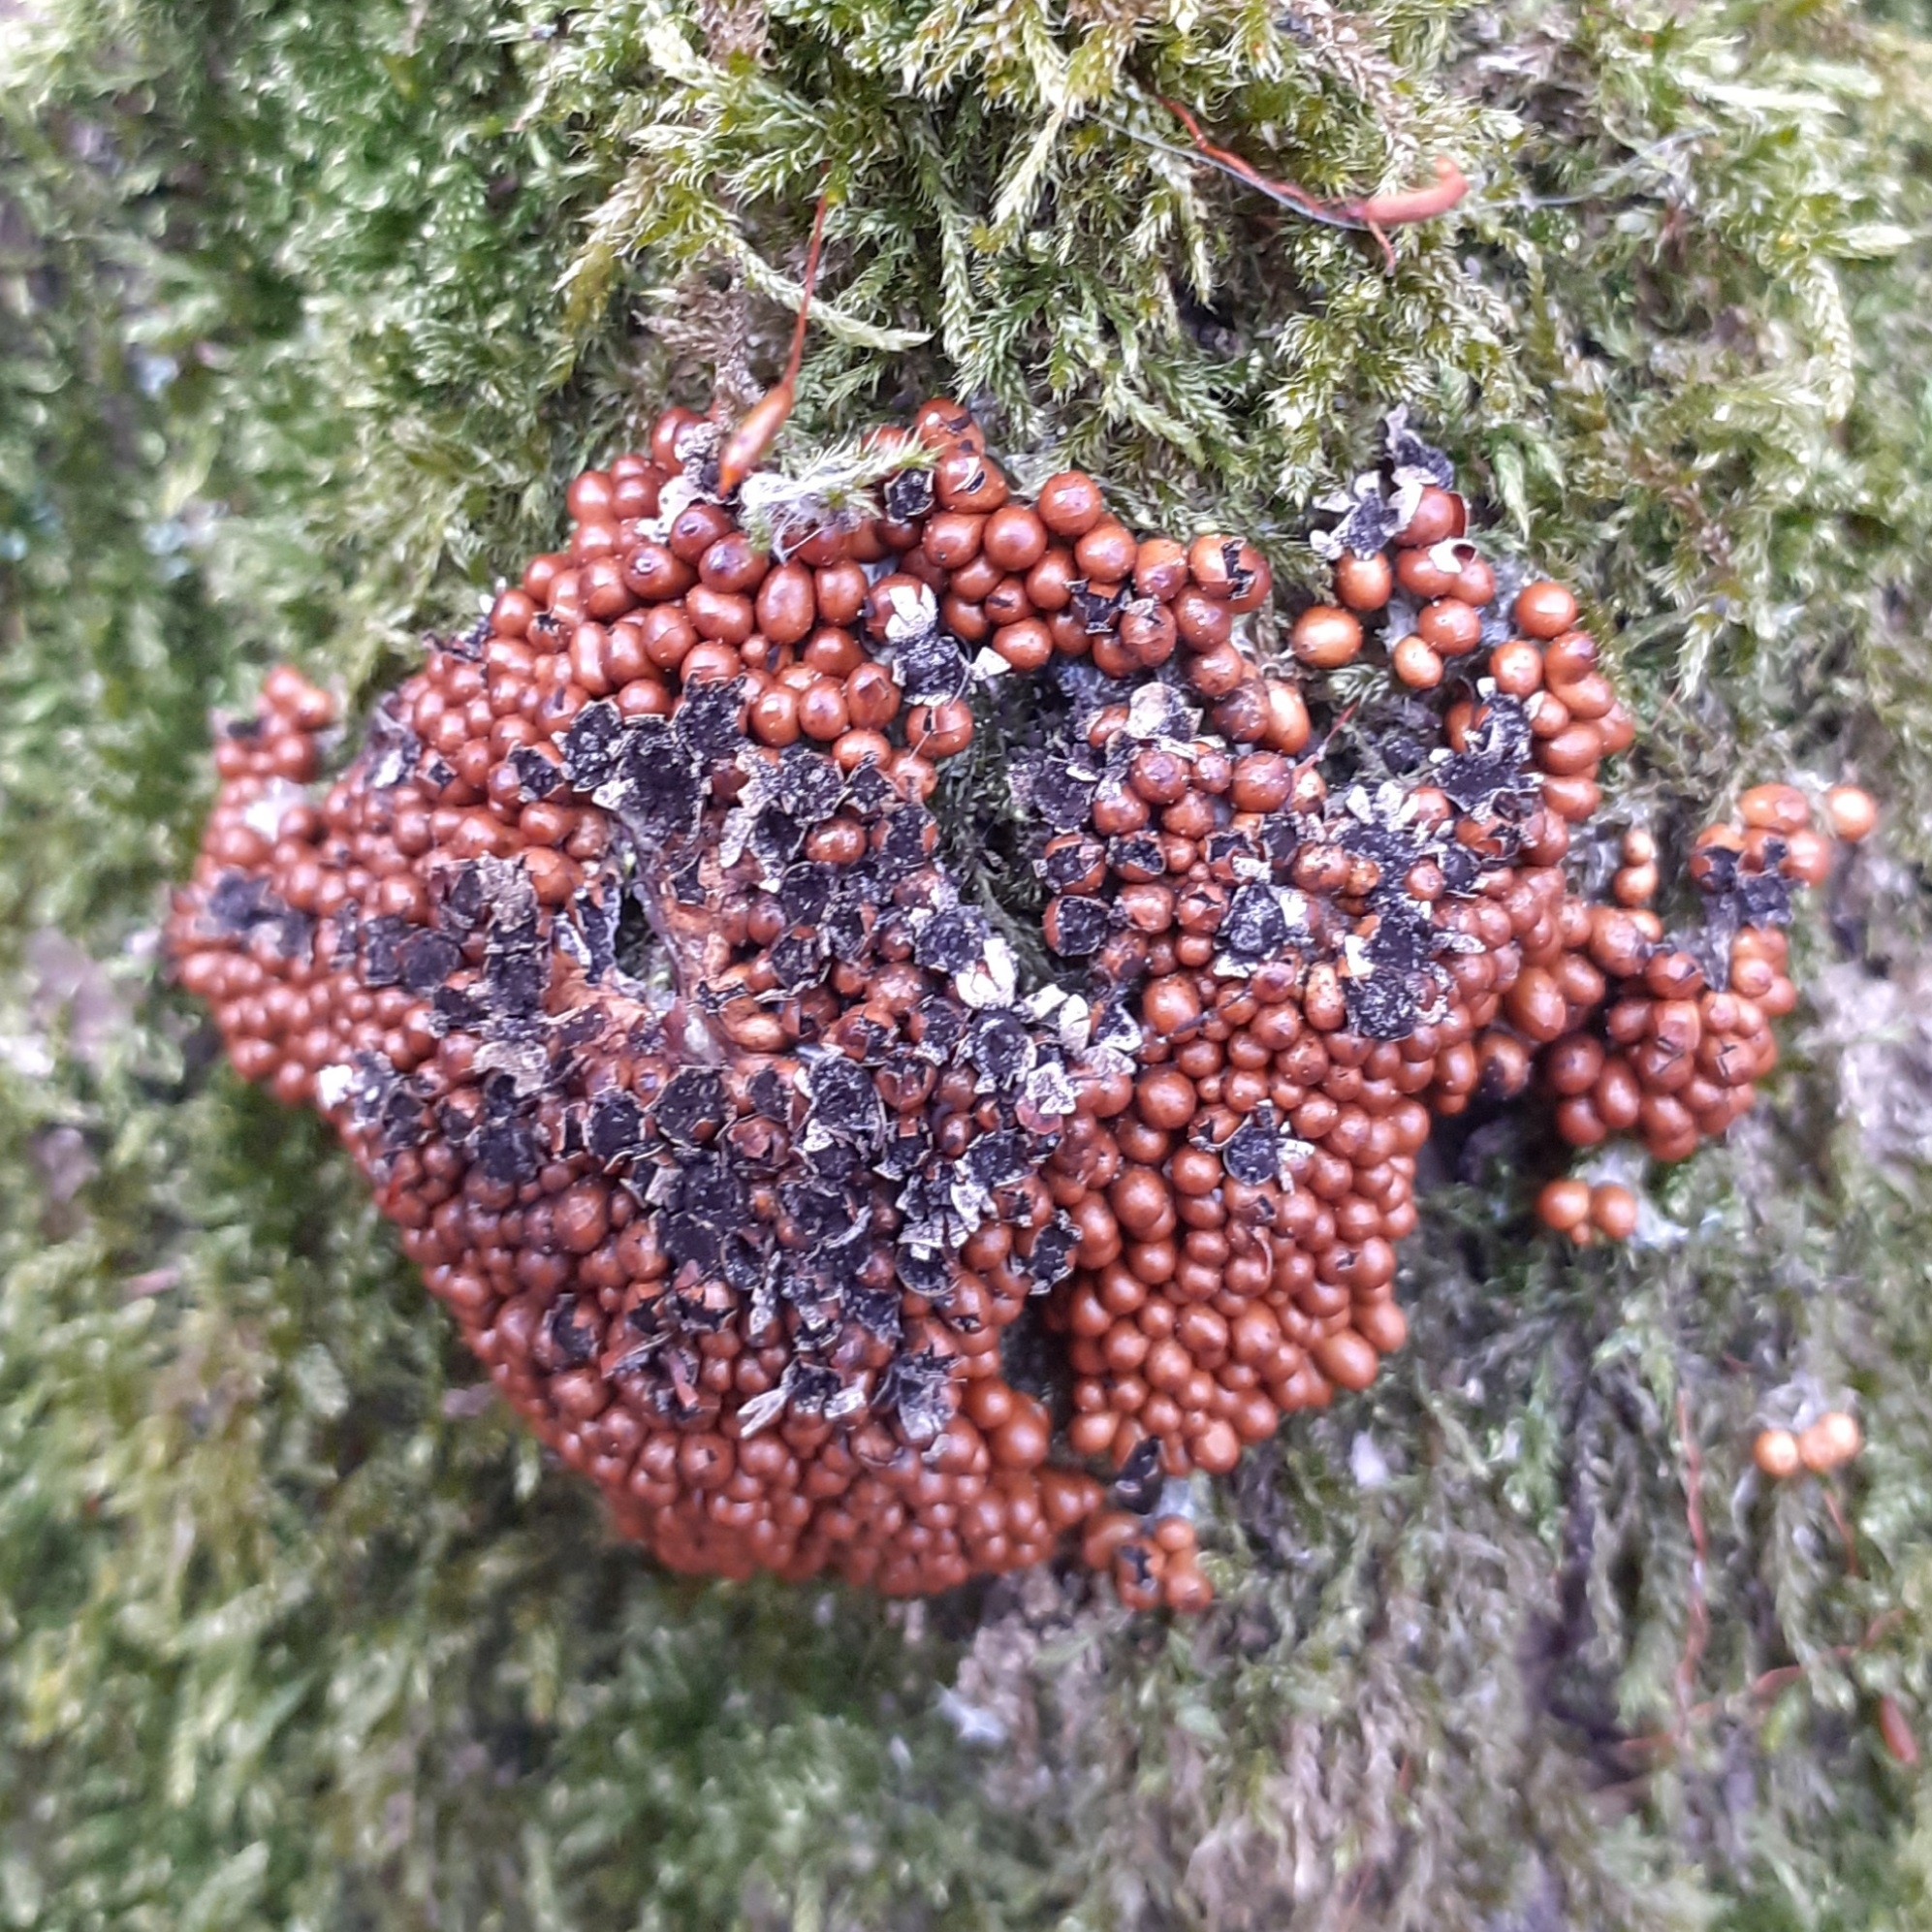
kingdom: Protozoa
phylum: Mycetozoa
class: Myxomycetes
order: Physarales
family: Physaraceae
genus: Leocarpus
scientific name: Leocarpus fragilis
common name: Insect-egg slime
